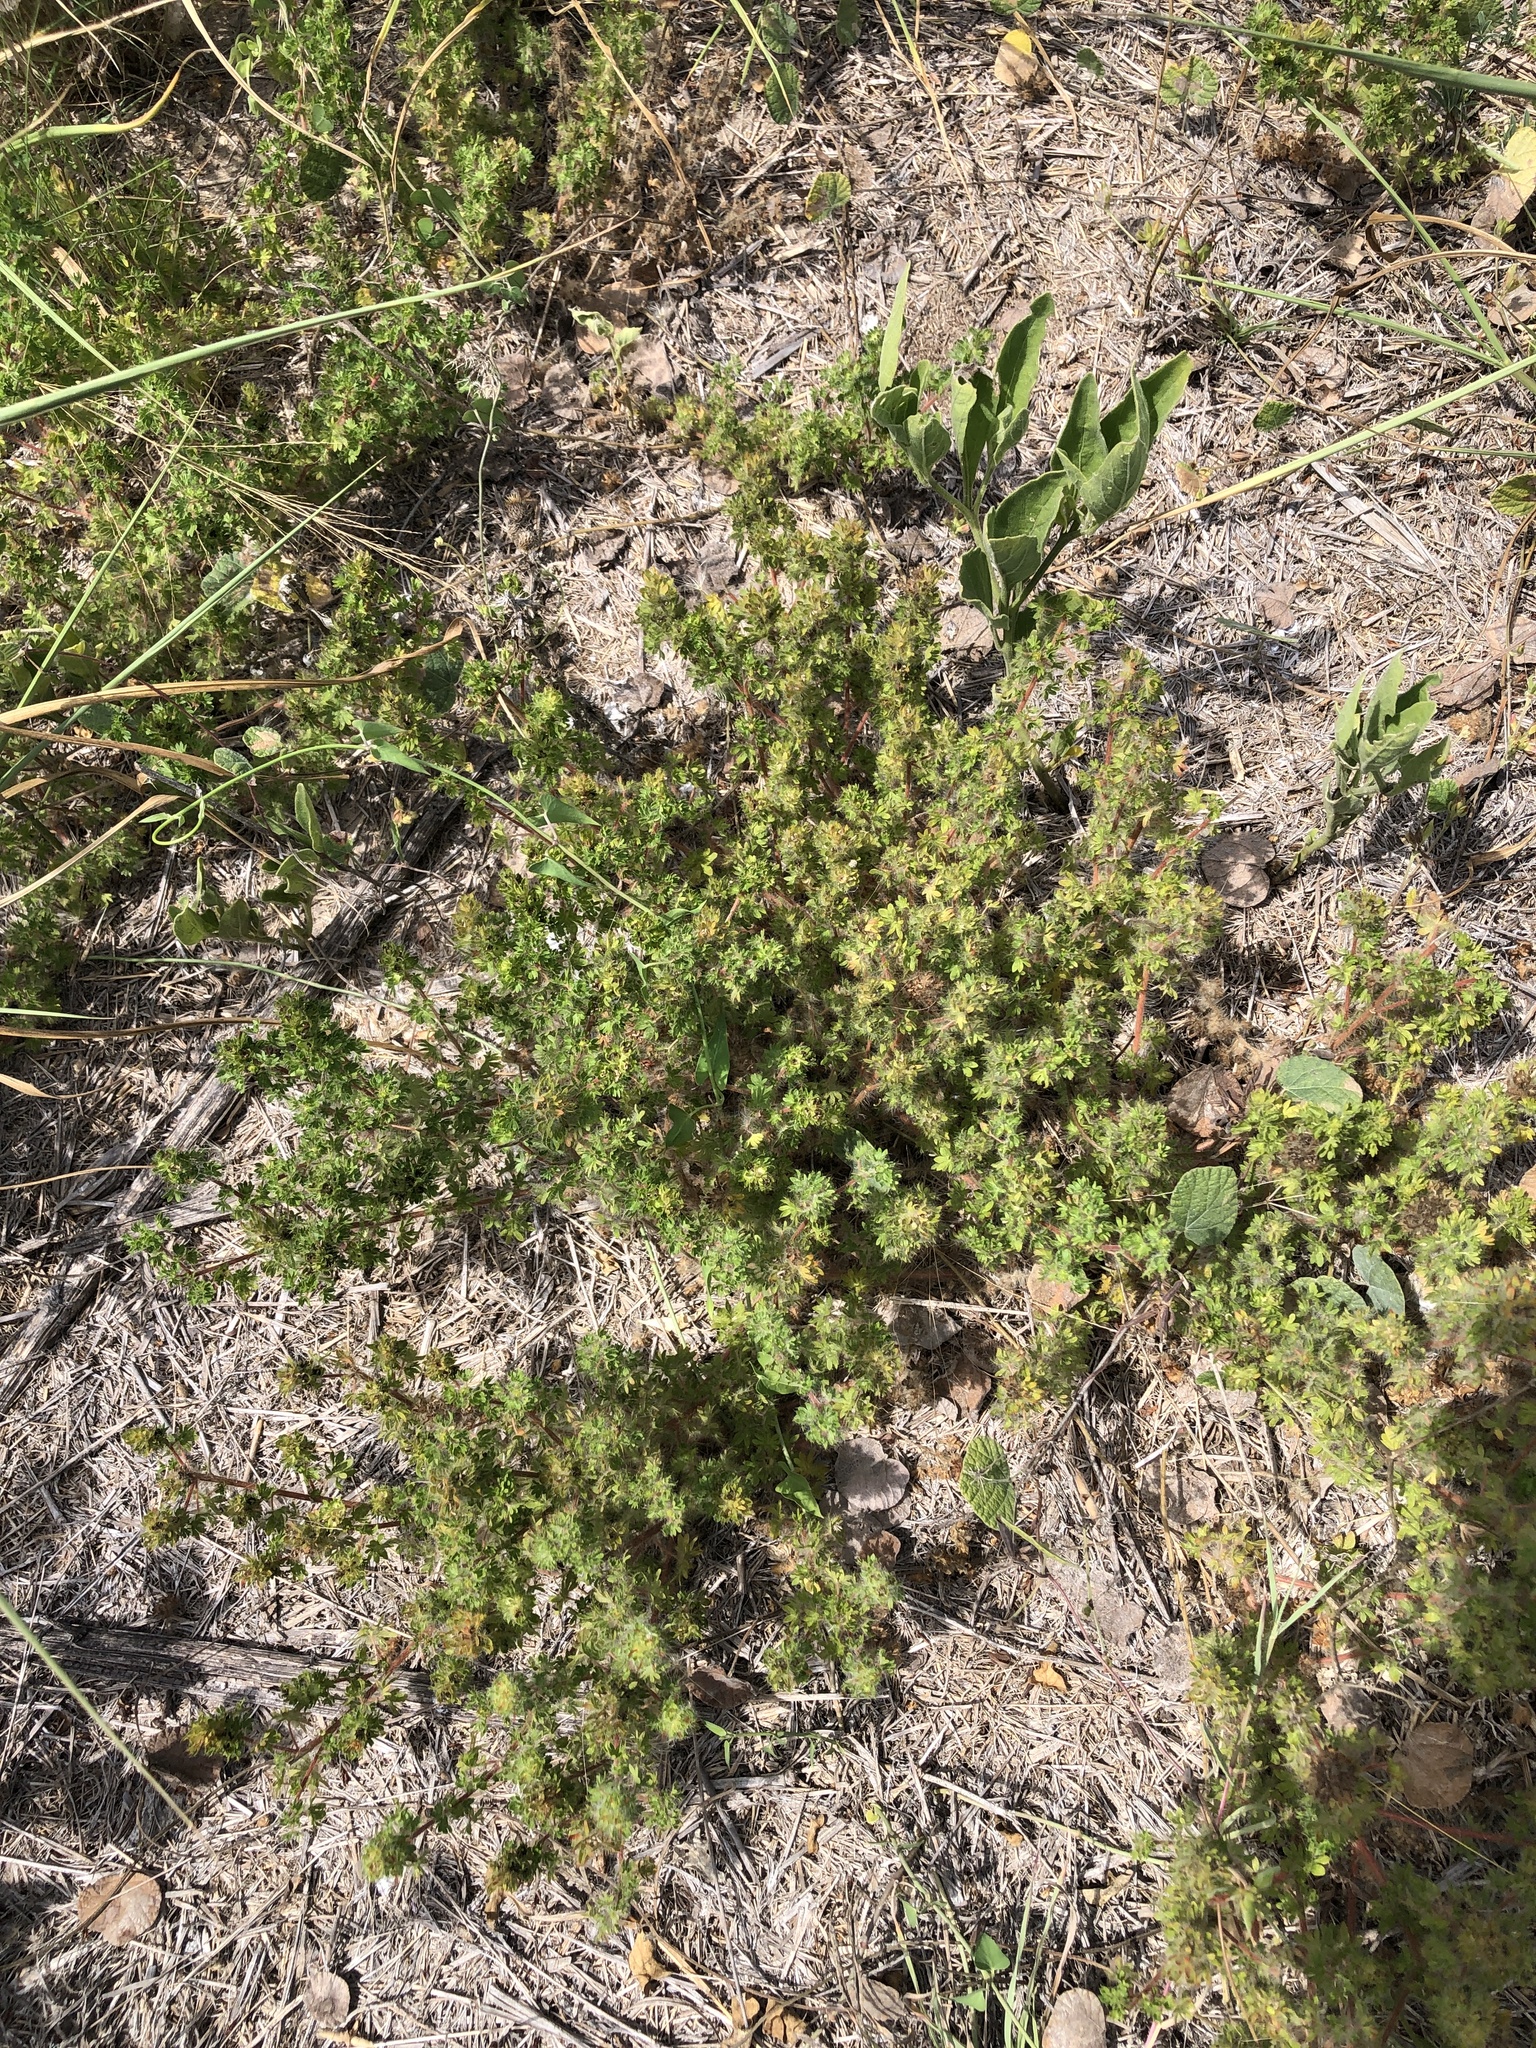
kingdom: Plantae
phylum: Tracheophyta
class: Magnoliopsida
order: Malpighiales
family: Euphorbiaceae
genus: Acalypha
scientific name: Acalypha radians
